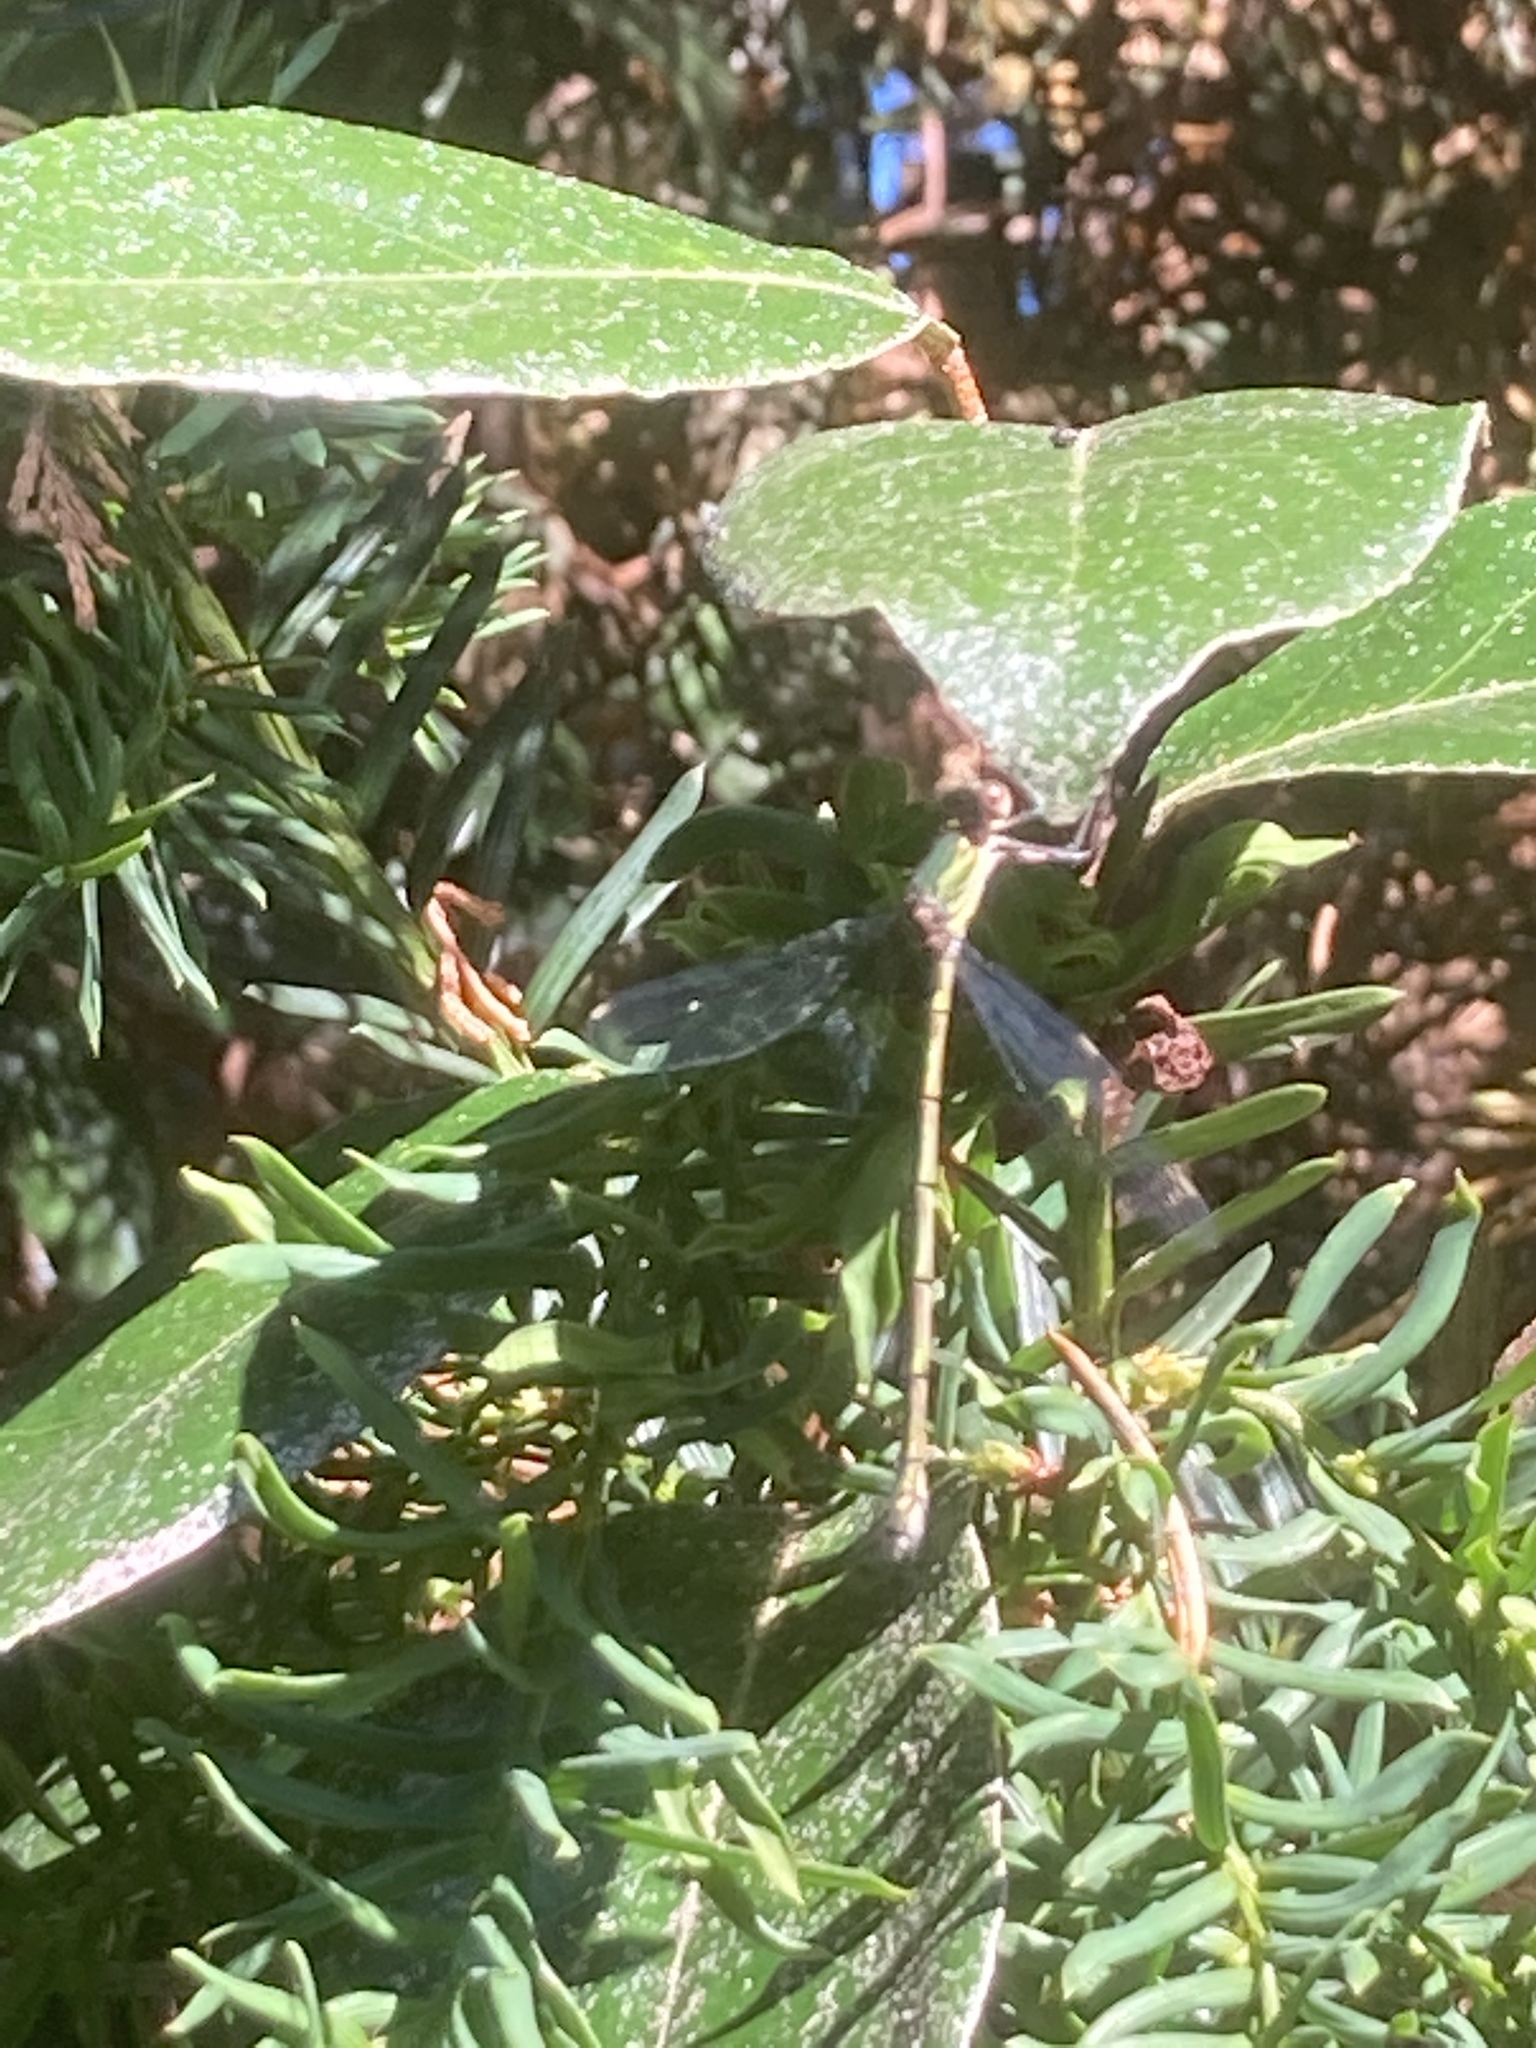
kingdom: Animalia
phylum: Arthropoda
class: Insecta
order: Odonata
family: Lestidae
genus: Chalcolestes
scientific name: Chalcolestes viridis
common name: Green emerald damselfly
